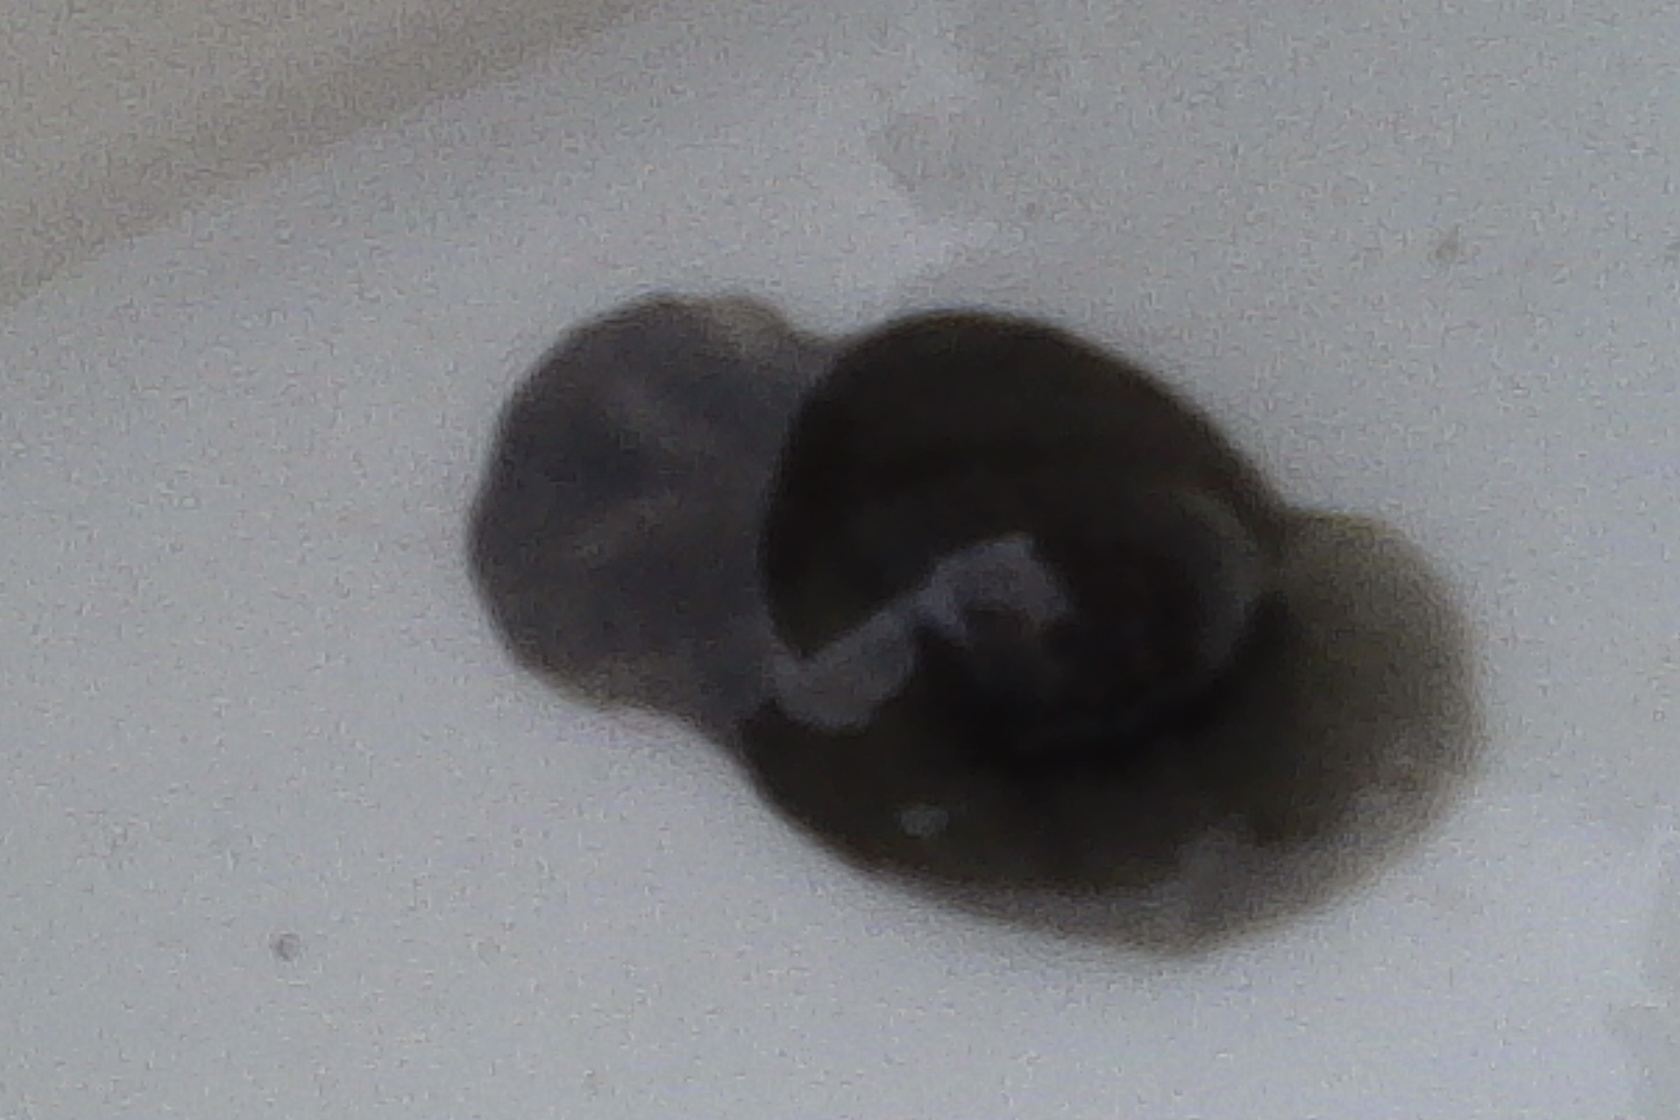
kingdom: Animalia
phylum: Mollusca
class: Gastropoda
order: Cephalaspidea
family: Haminoeidae
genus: Papawera
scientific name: Papawera zelandiae
